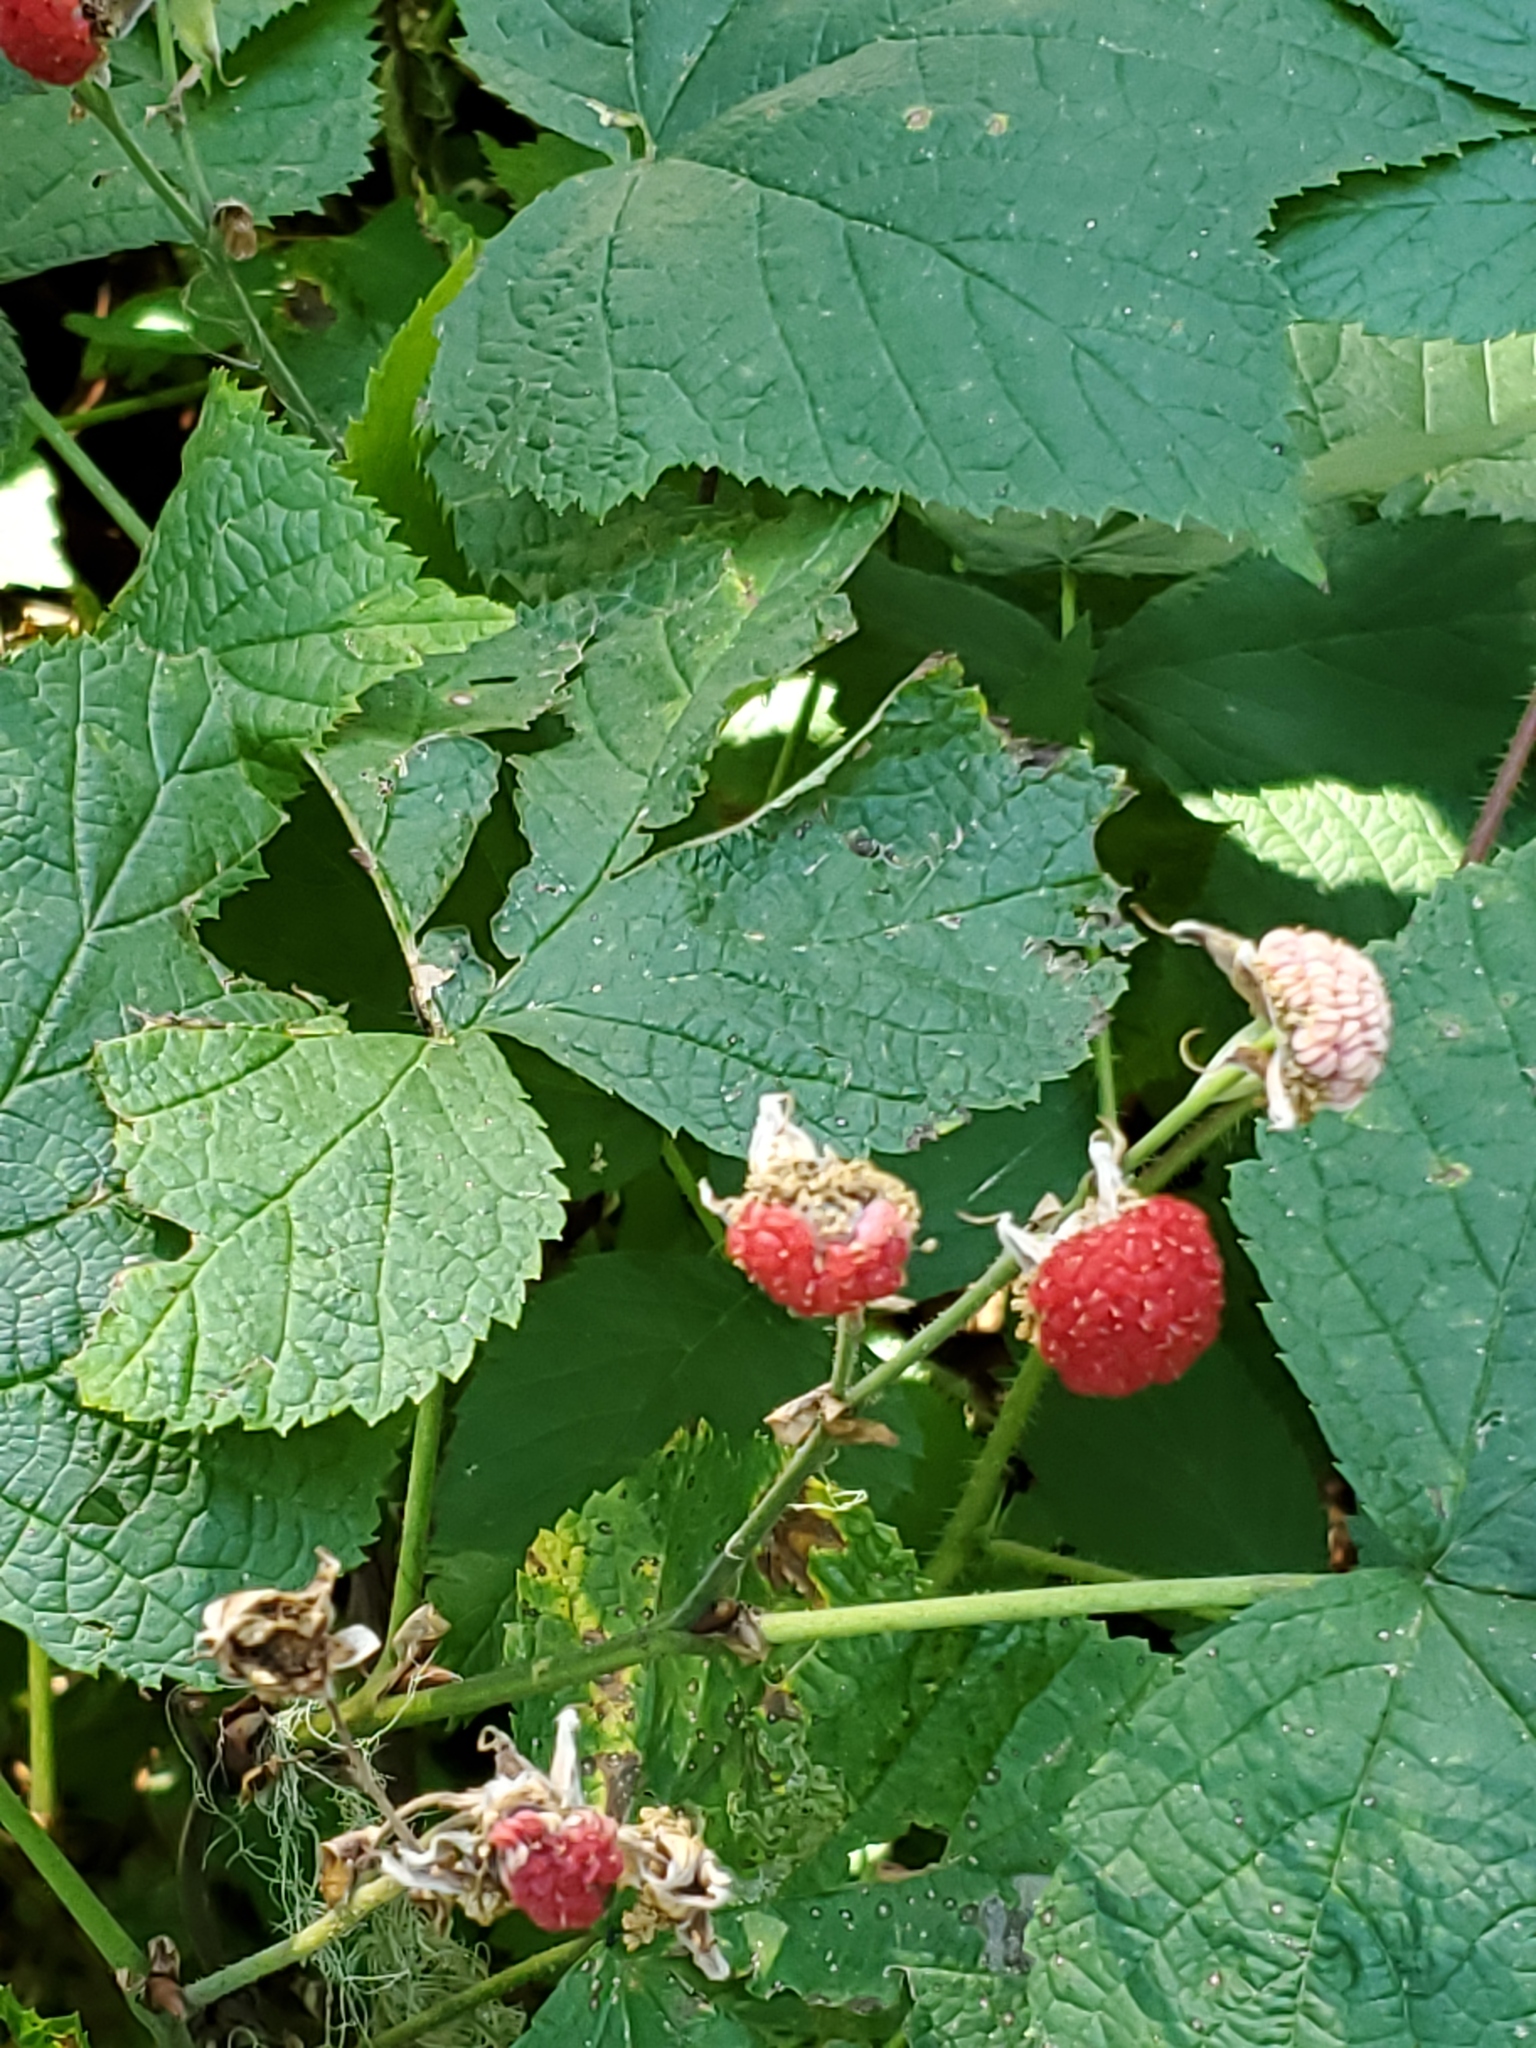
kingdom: Plantae
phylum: Tracheophyta
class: Magnoliopsida
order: Rosales
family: Rosaceae
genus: Rubus
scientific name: Rubus parviflorus
